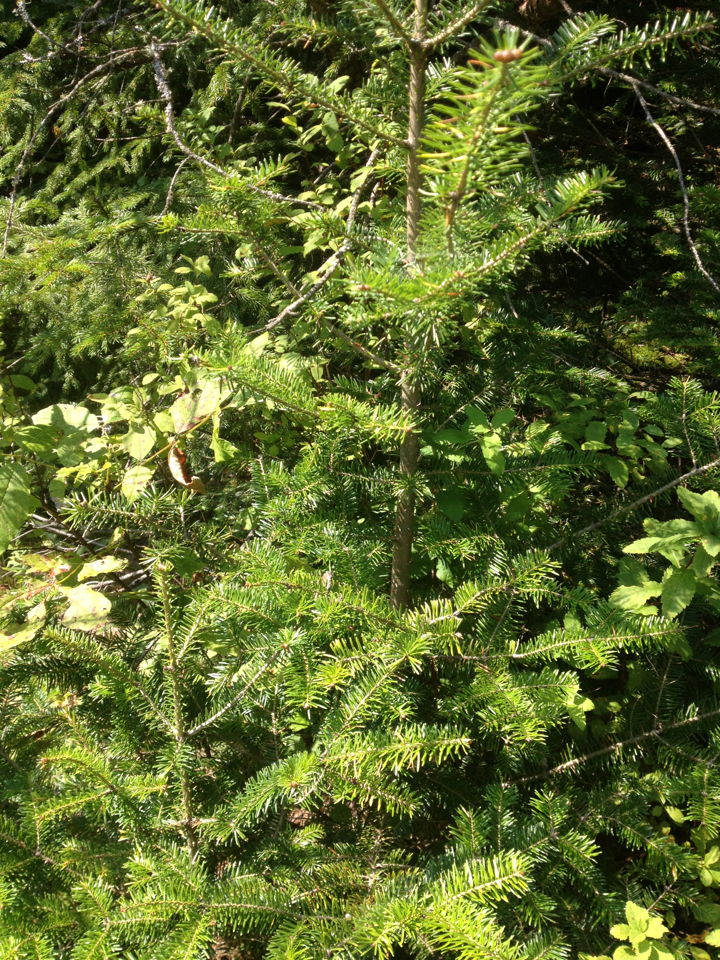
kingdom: Plantae
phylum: Tracheophyta
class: Pinopsida
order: Pinales
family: Pinaceae
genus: Abies
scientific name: Abies balsamea
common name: Balsam fir
